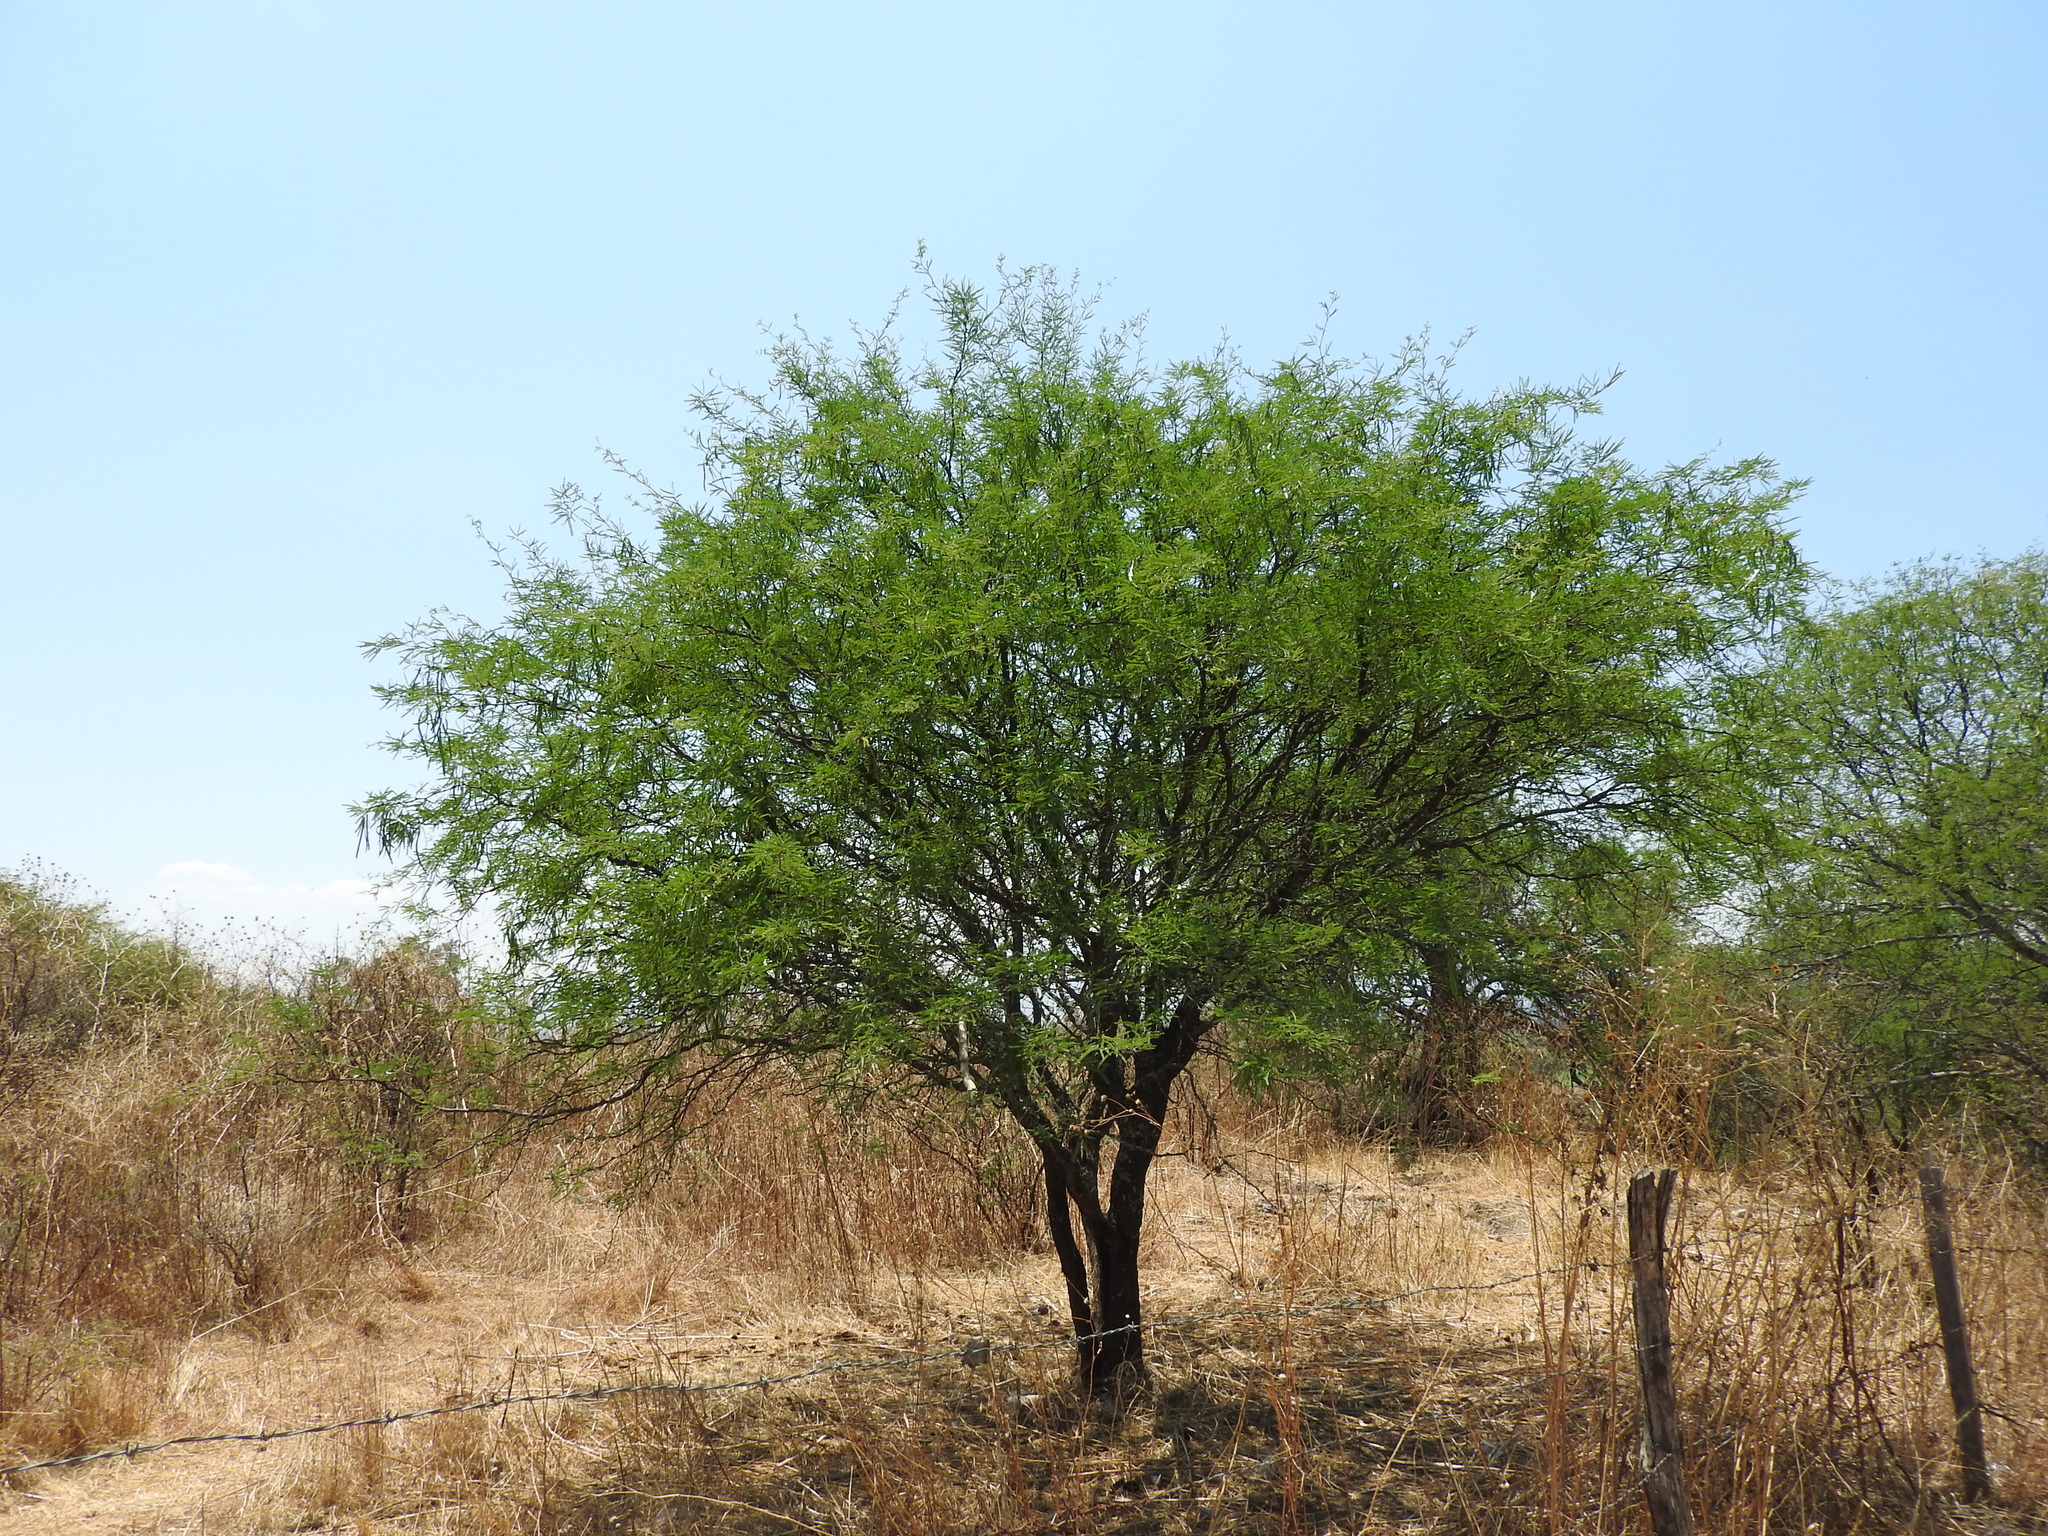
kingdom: Plantae
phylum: Tracheophyta
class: Magnoliopsida
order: Fabales
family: Fabaceae
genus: Prosopis
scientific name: Prosopis laevigata
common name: Smooth mesquite
